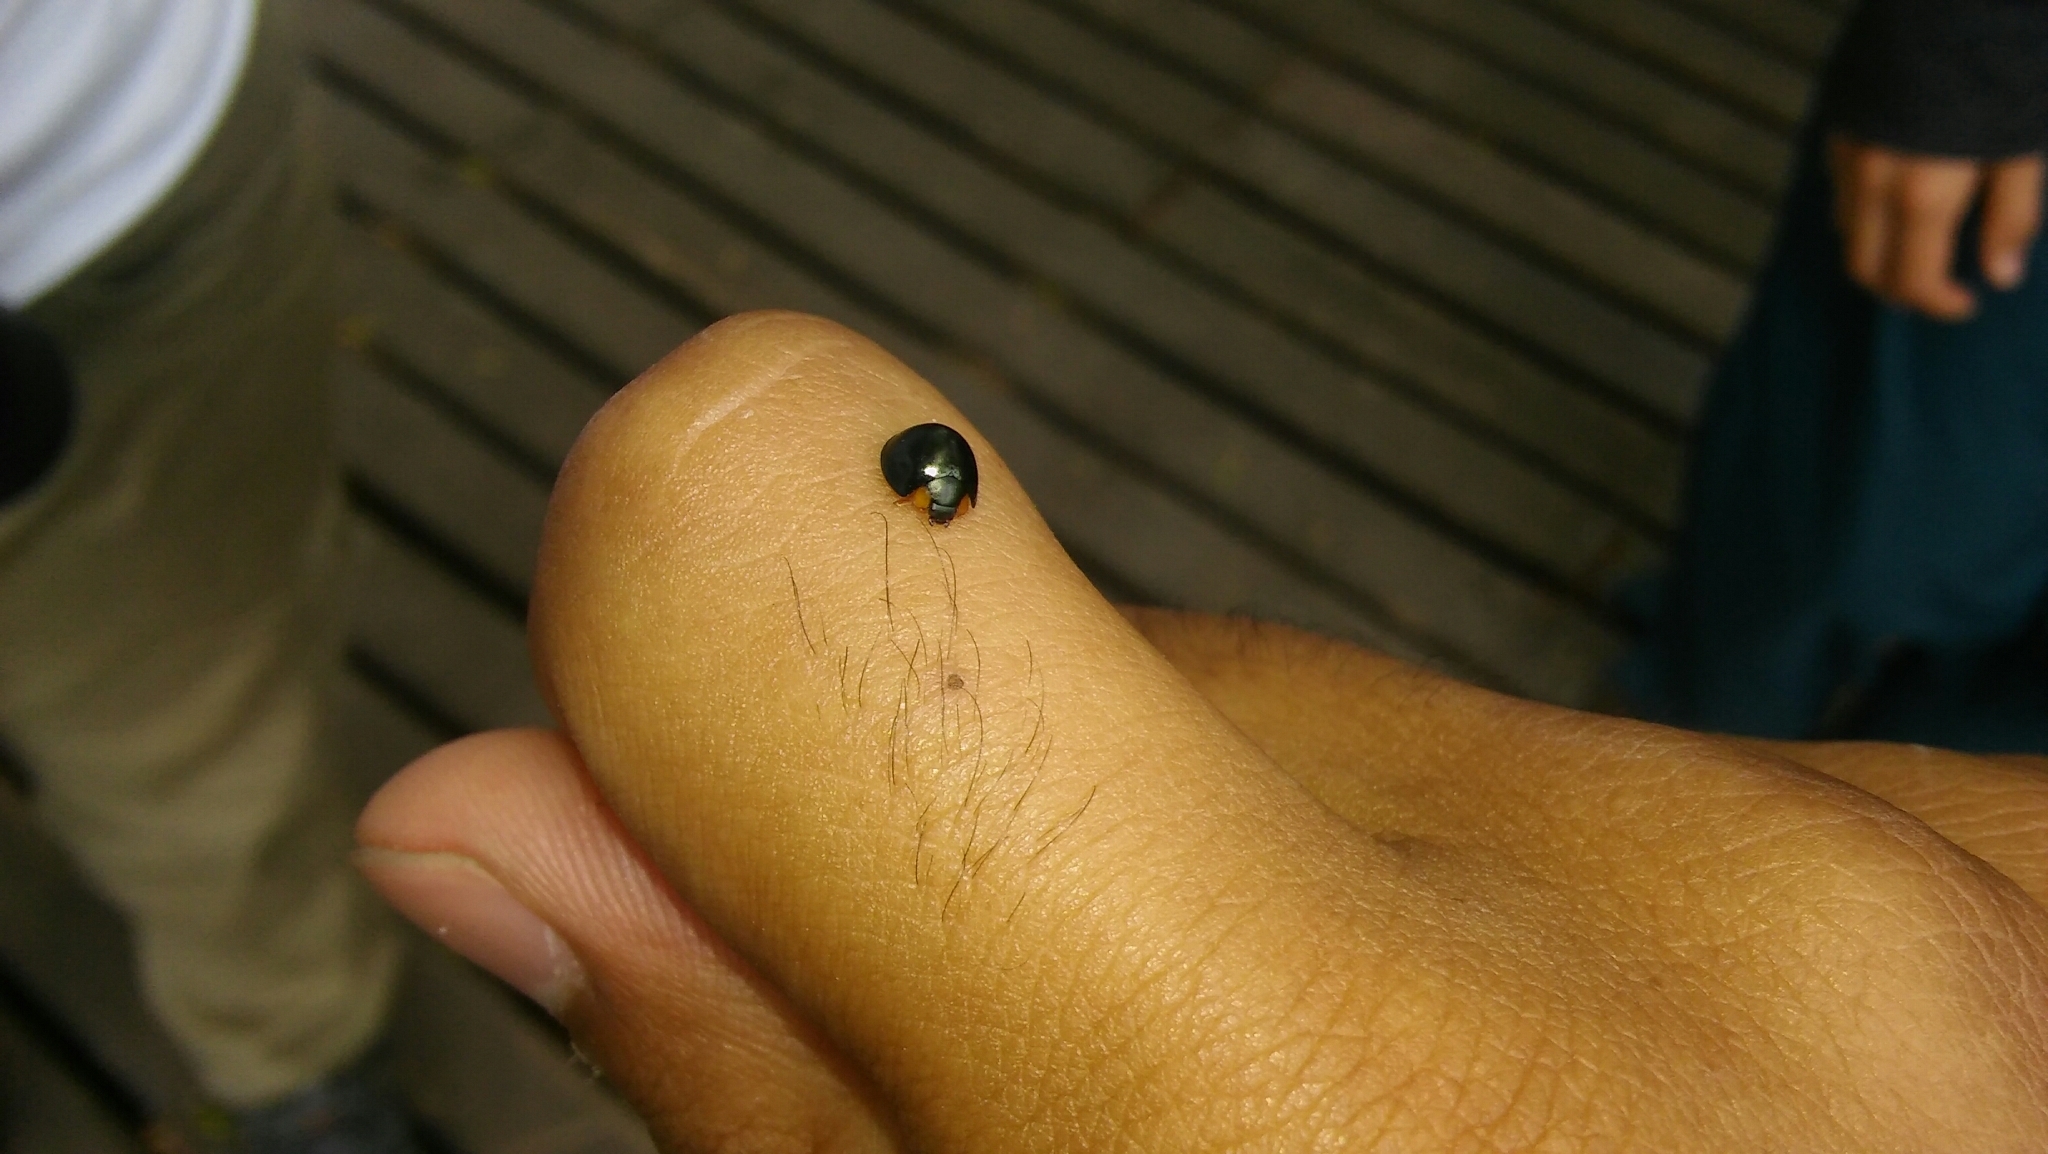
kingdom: Animalia
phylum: Arthropoda
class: Insecta
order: Coleoptera
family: Coccinellidae
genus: Curinus
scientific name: Curinus coeruleus
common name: Ladybird beetle
